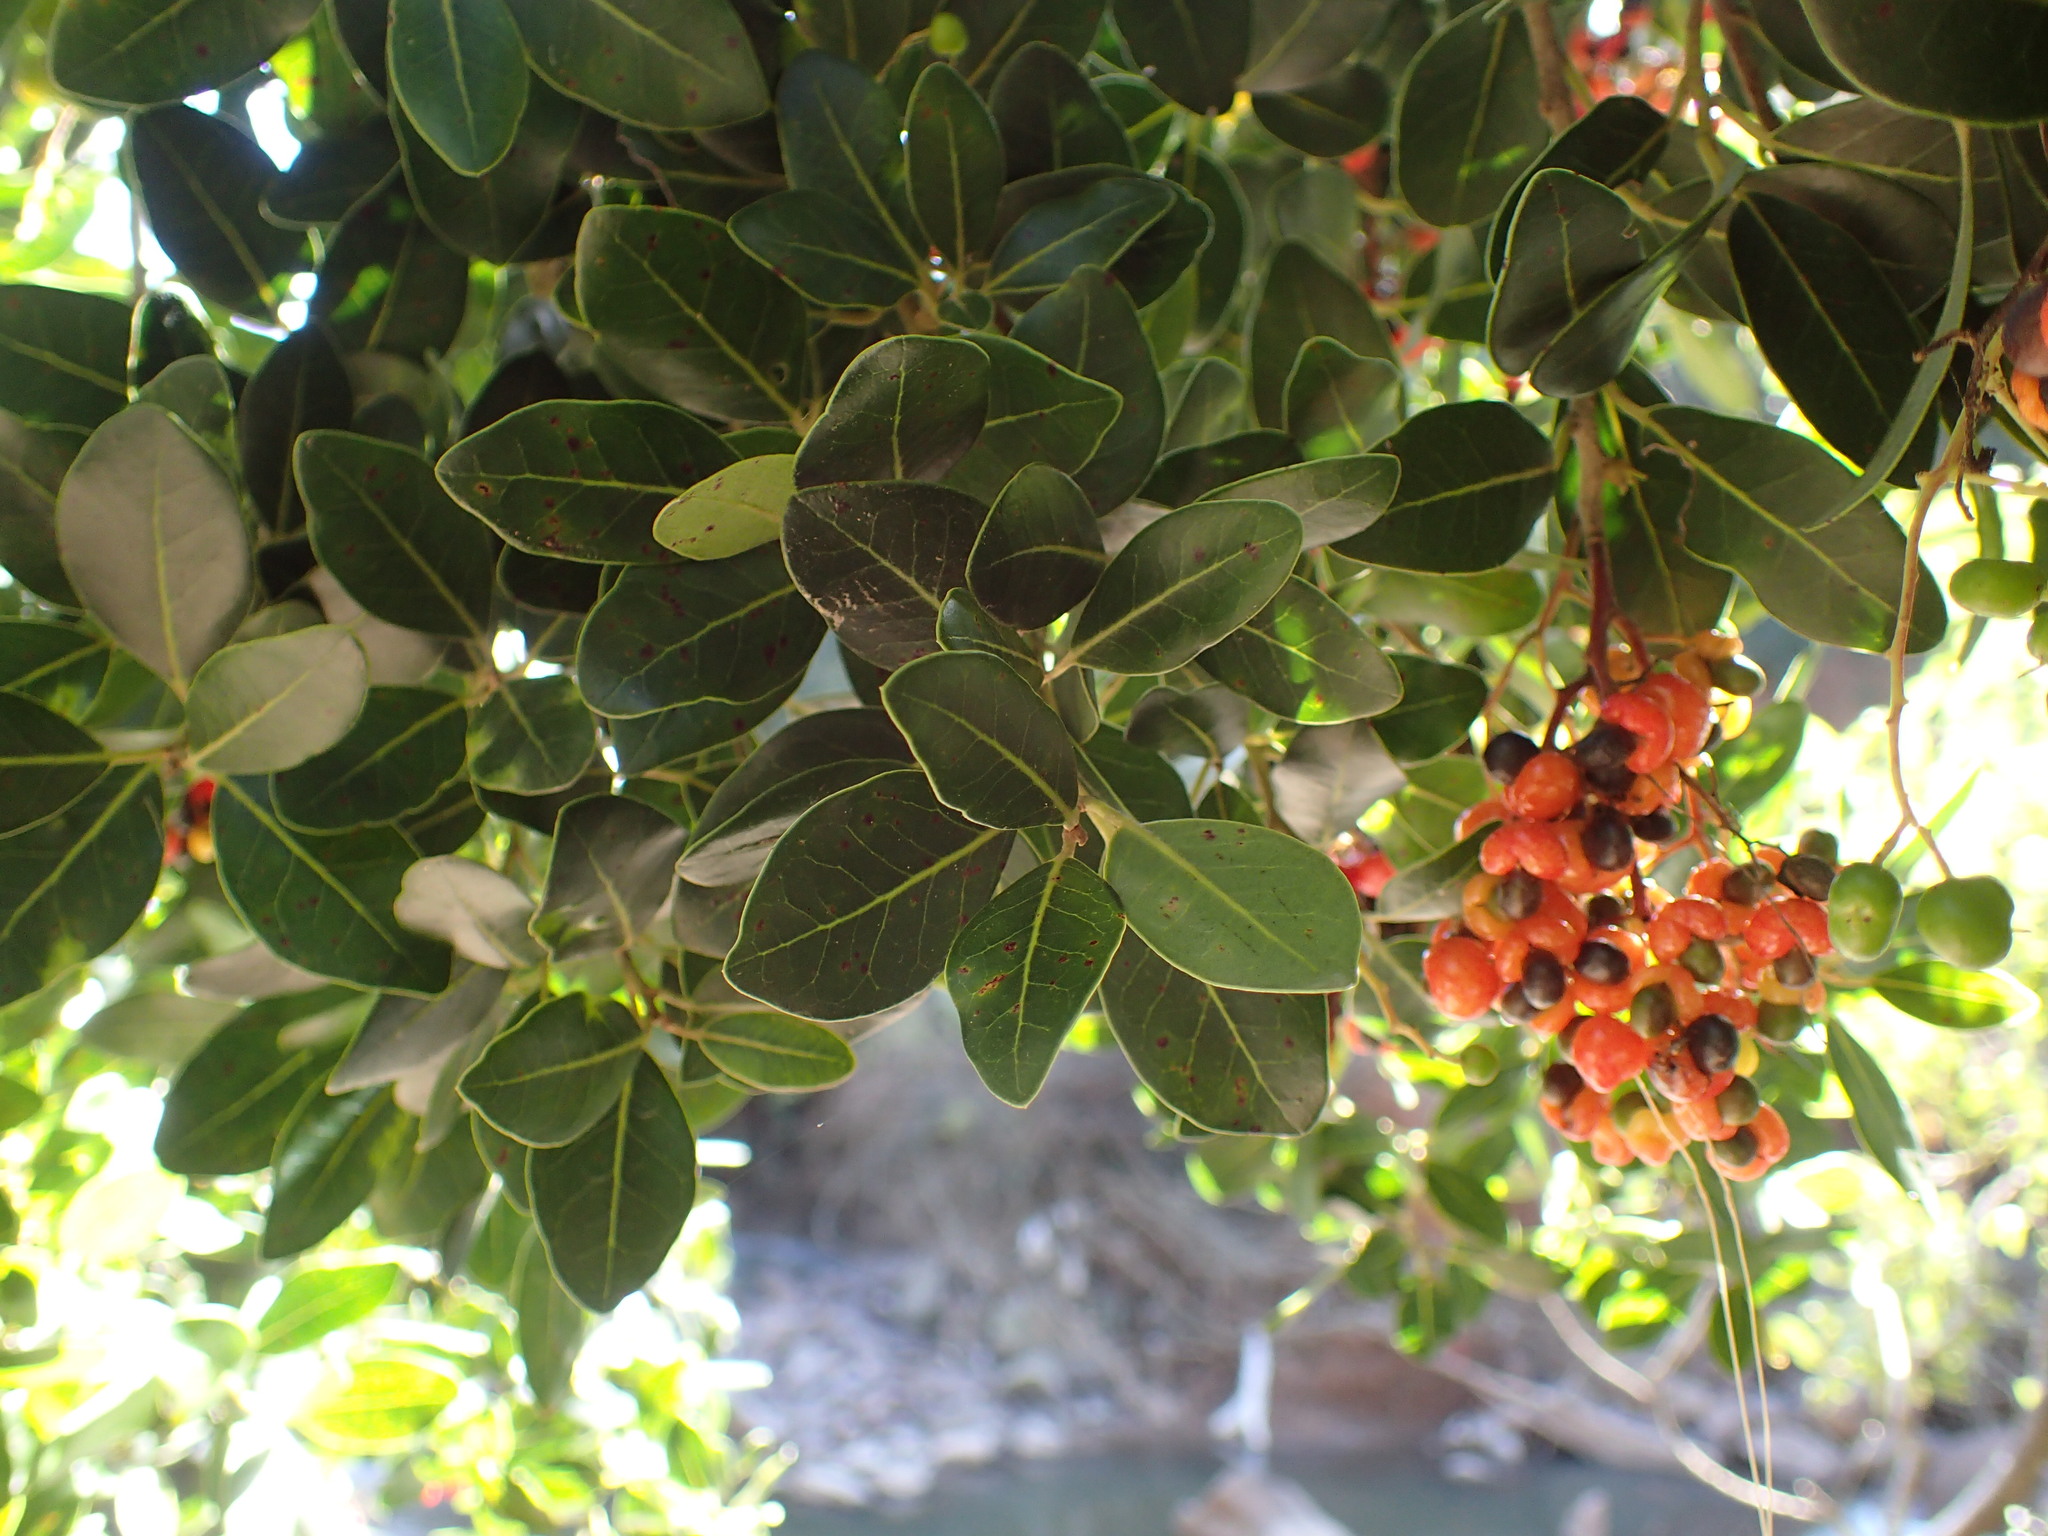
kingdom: Plantae
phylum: Tracheophyta
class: Magnoliopsida
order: Metteniusales
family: Metteniusaceae
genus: Apodytes
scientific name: Apodytes dimidiata
